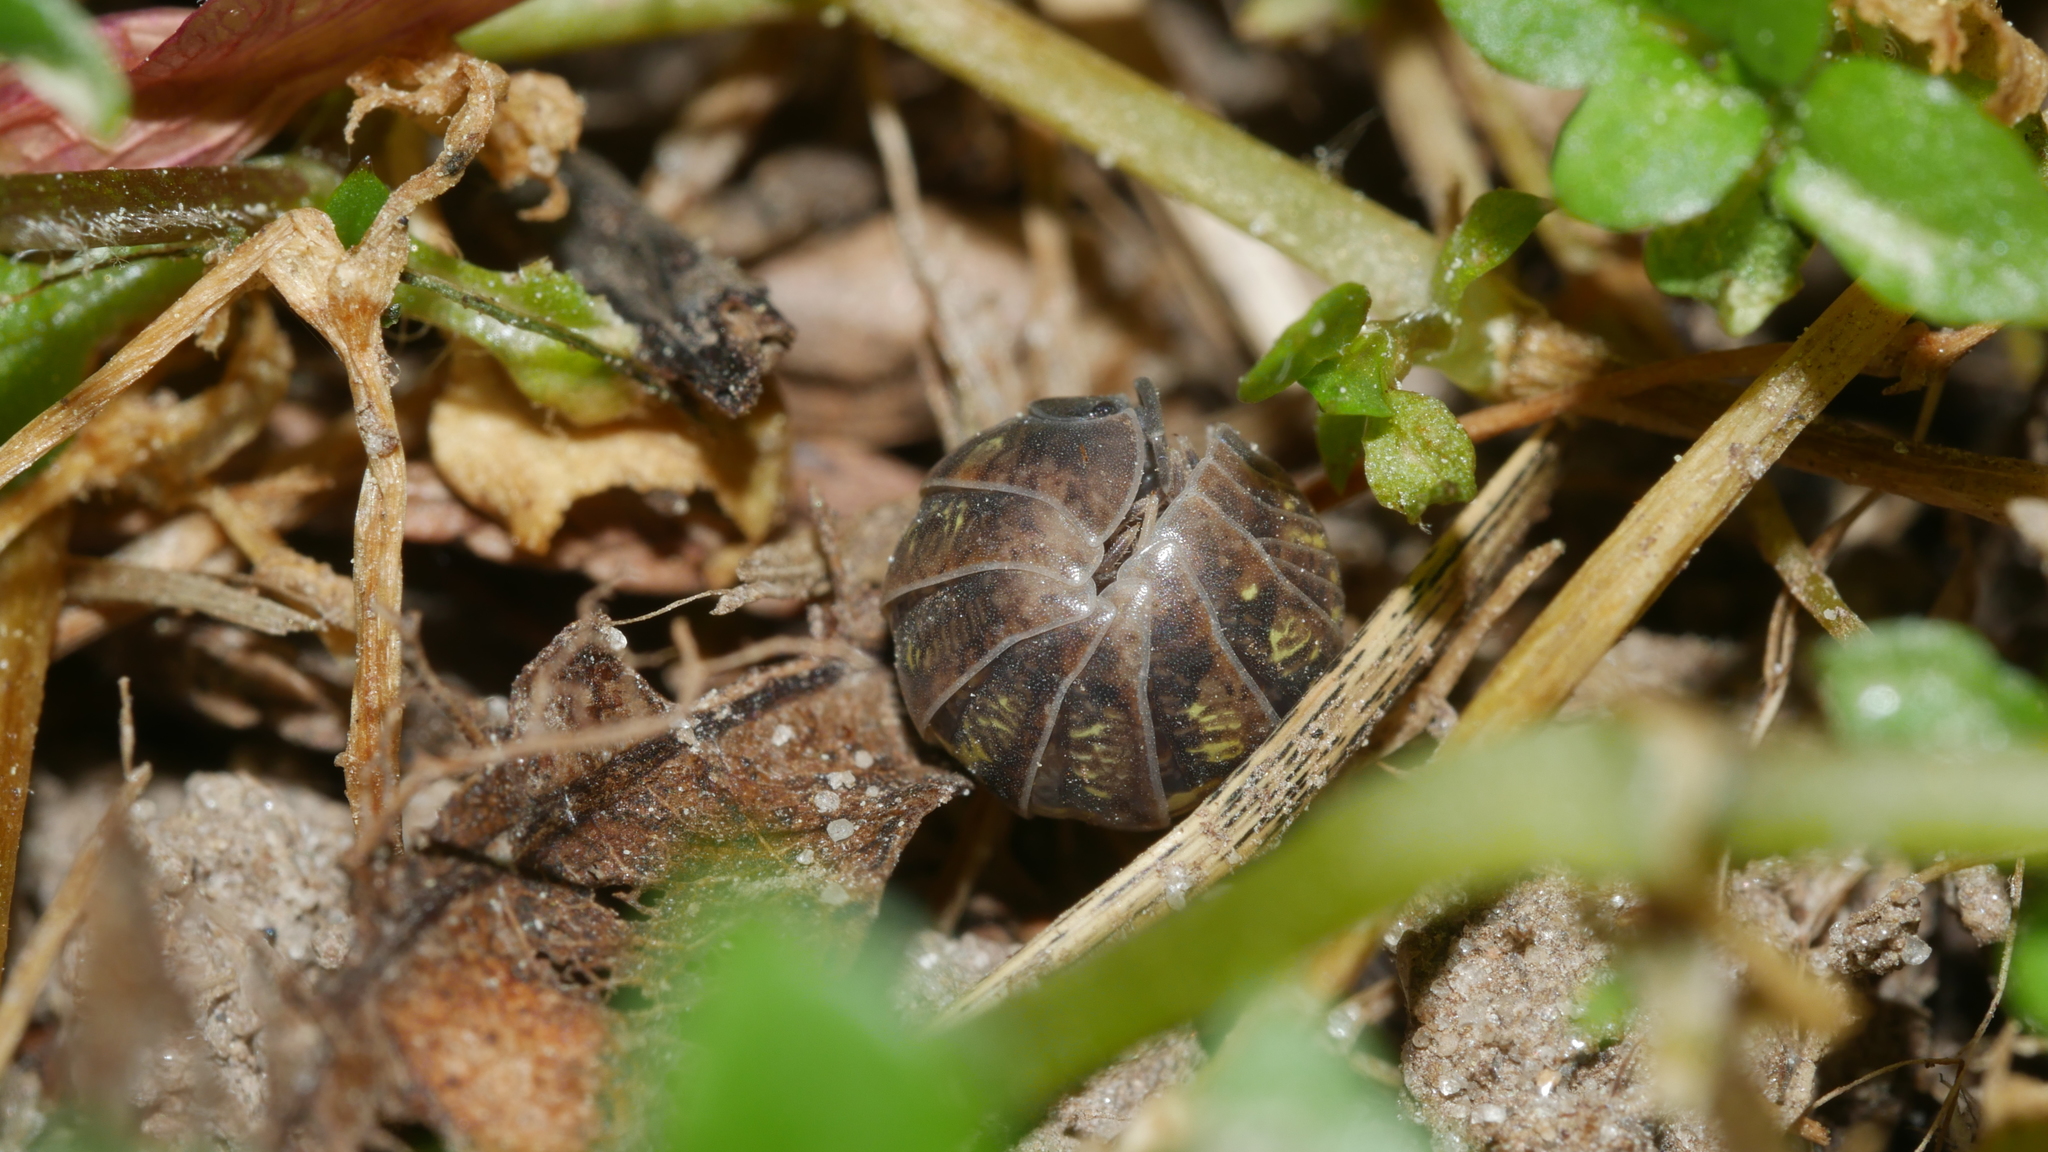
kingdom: Animalia
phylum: Arthropoda
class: Malacostraca
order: Isopoda
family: Armadillidiidae
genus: Armadillidium
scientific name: Armadillidium vulgare
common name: Common pill woodlouse
